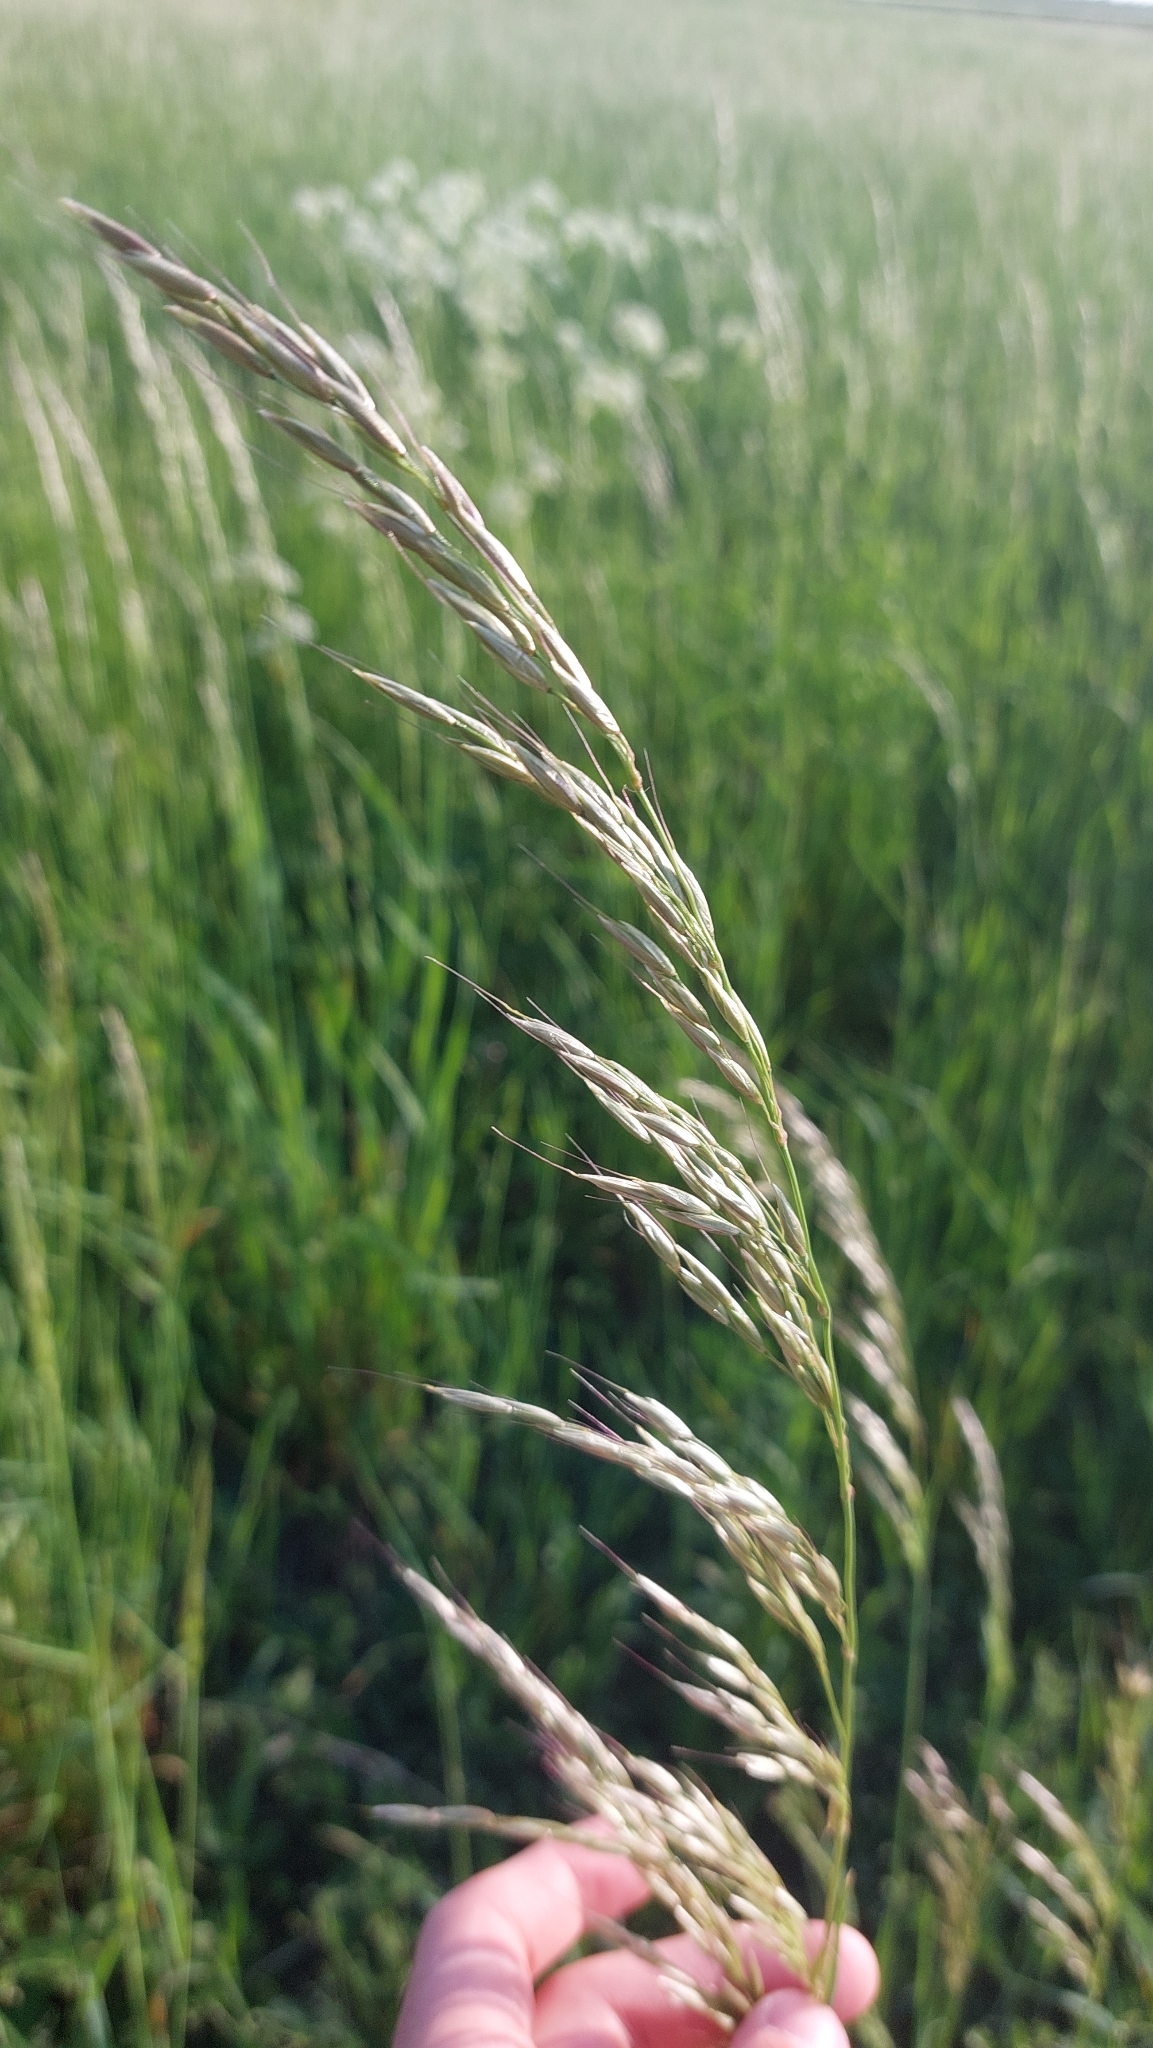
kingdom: Plantae
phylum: Tracheophyta
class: Liliopsida
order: Poales
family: Poaceae
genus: Arrhenatherum
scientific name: Arrhenatherum elatius
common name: Tall oatgrass
